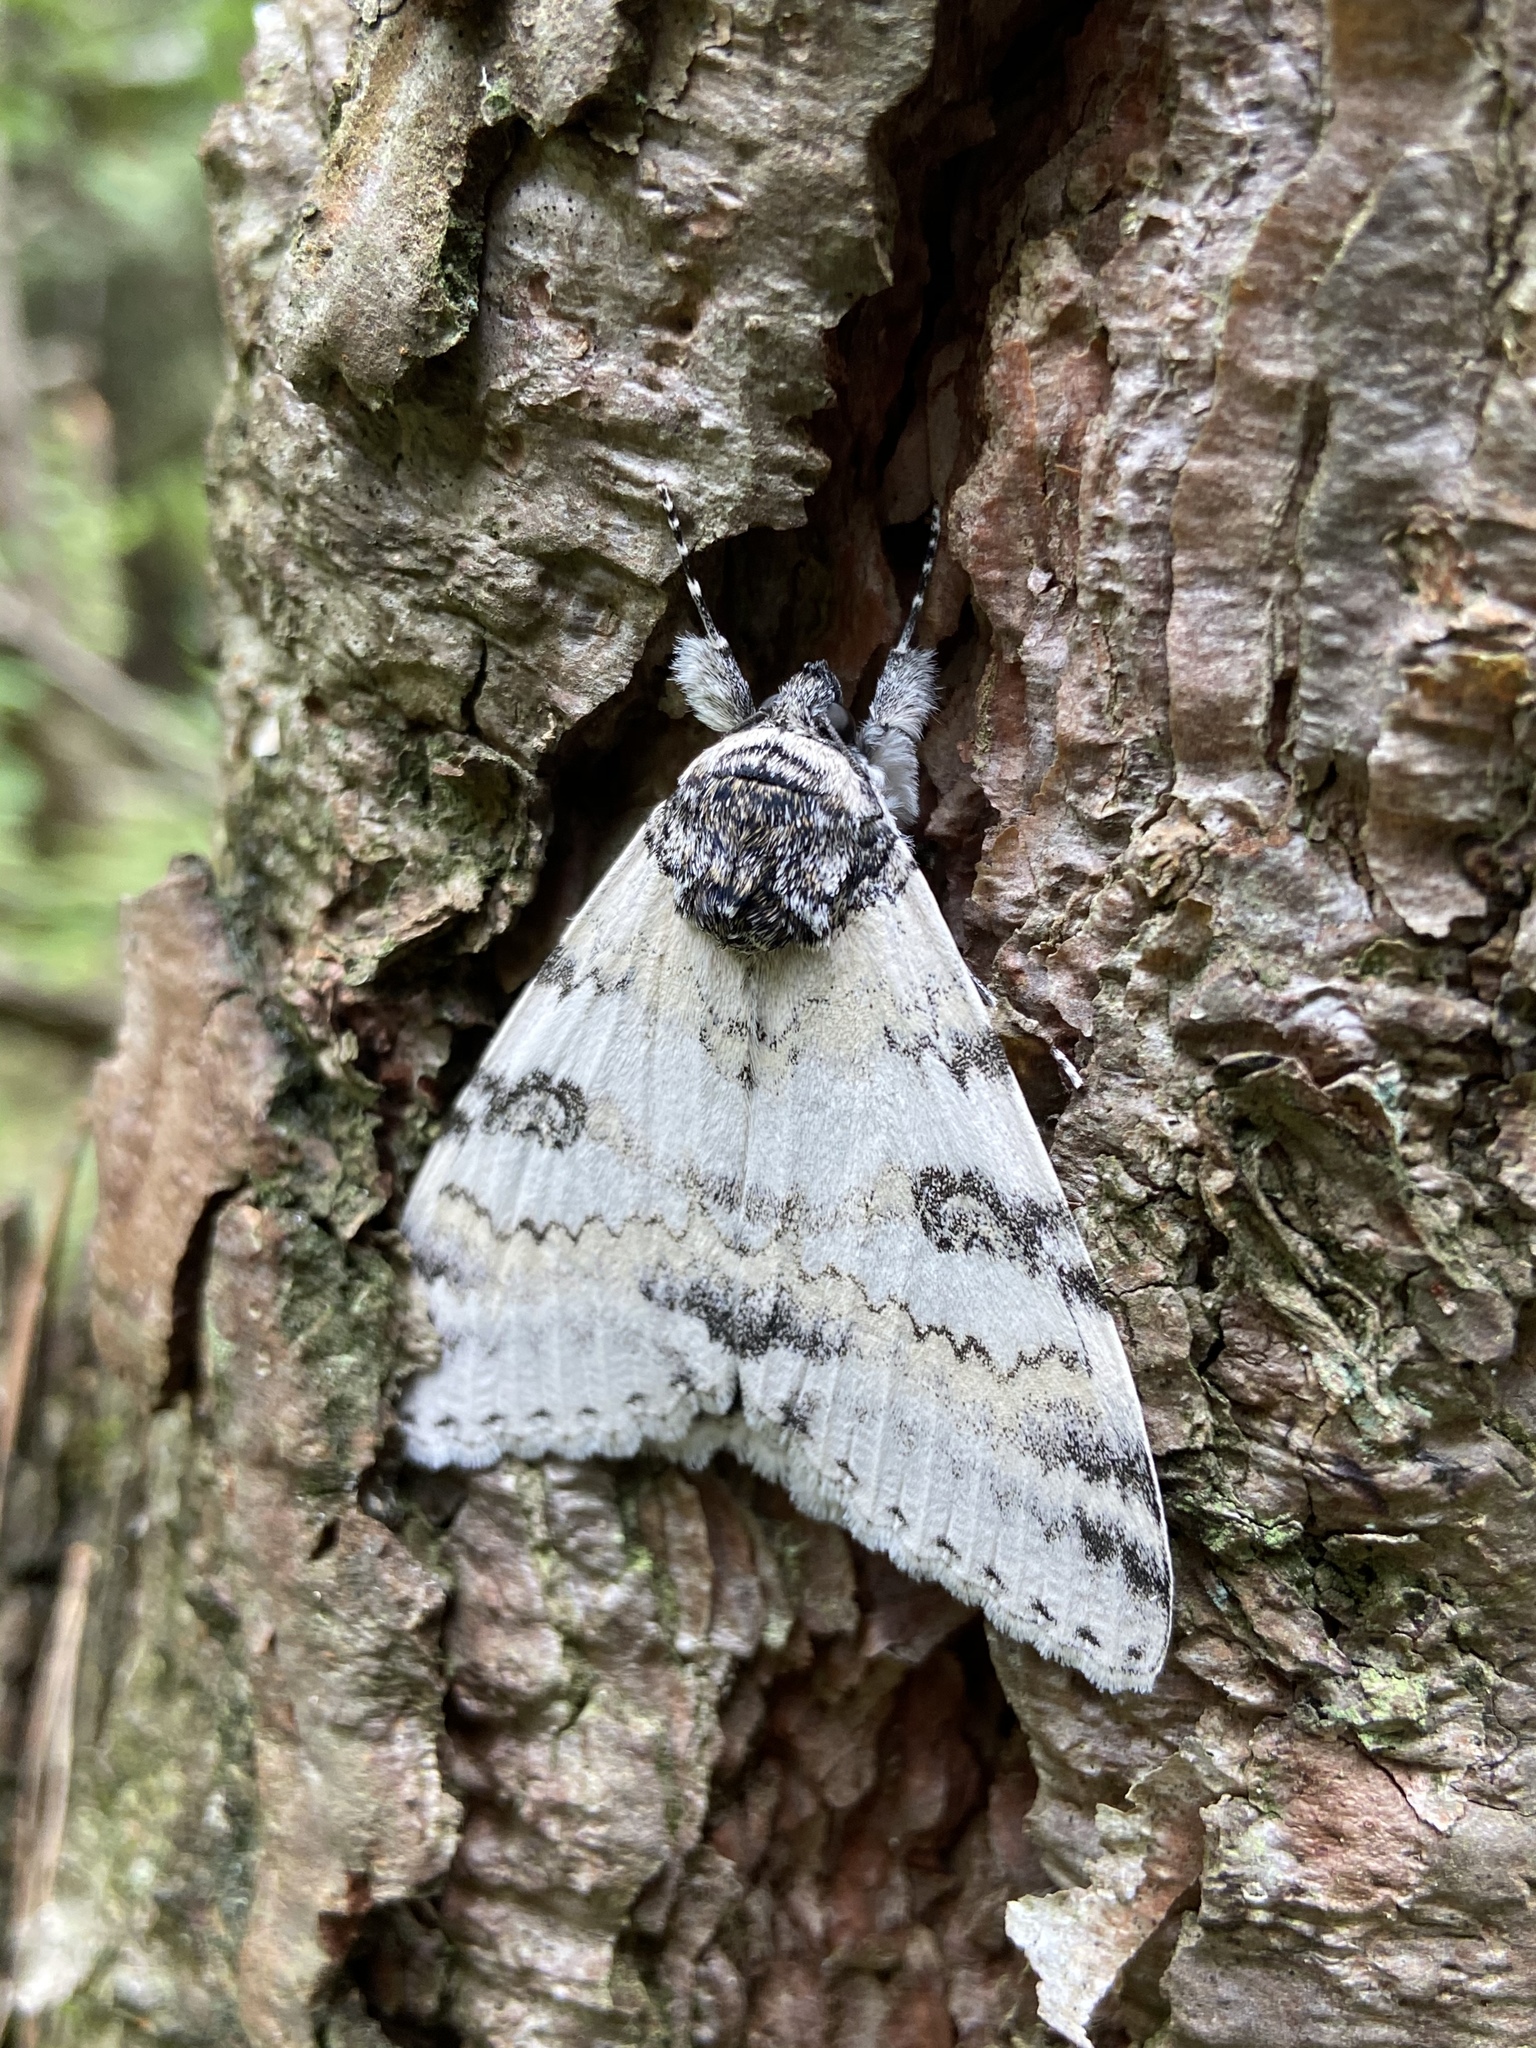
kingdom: Animalia
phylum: Arthropoda
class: Insecta
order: Lepidoptera
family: Erebidae
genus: Catocala
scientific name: Catocala relicta
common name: White underwing
